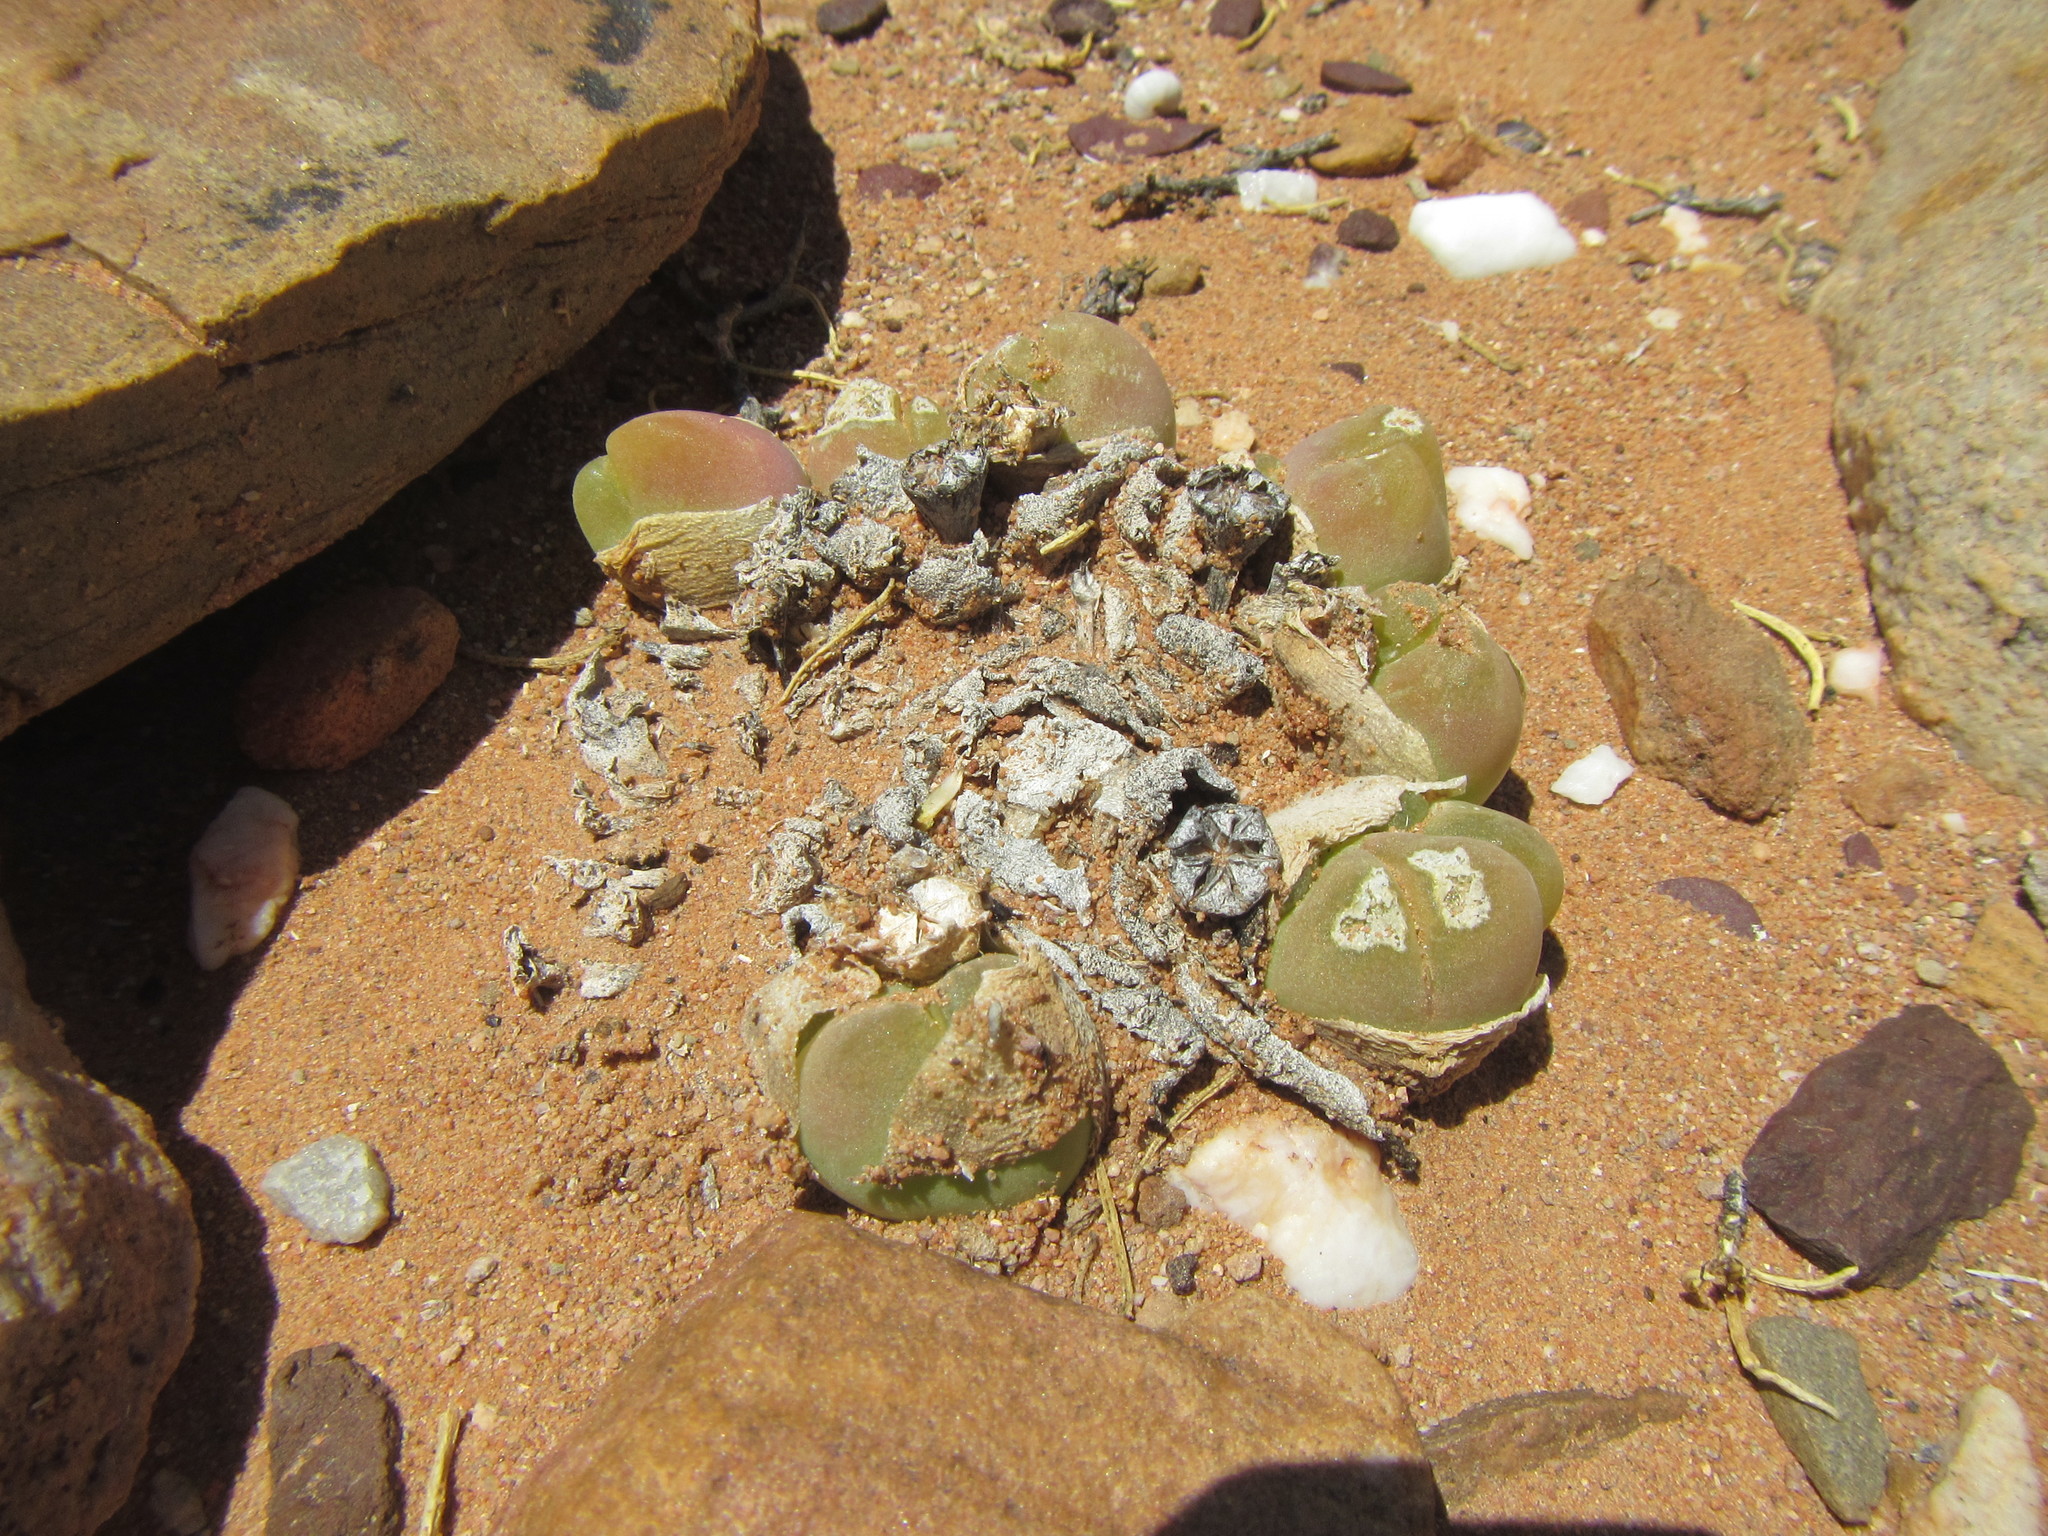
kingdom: Plantae
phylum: Tracheophyta
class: Magnoliopsida
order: Caryophyllales
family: Aizoaceae
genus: Gibbaeum
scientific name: Gibbaeum nuciforme
